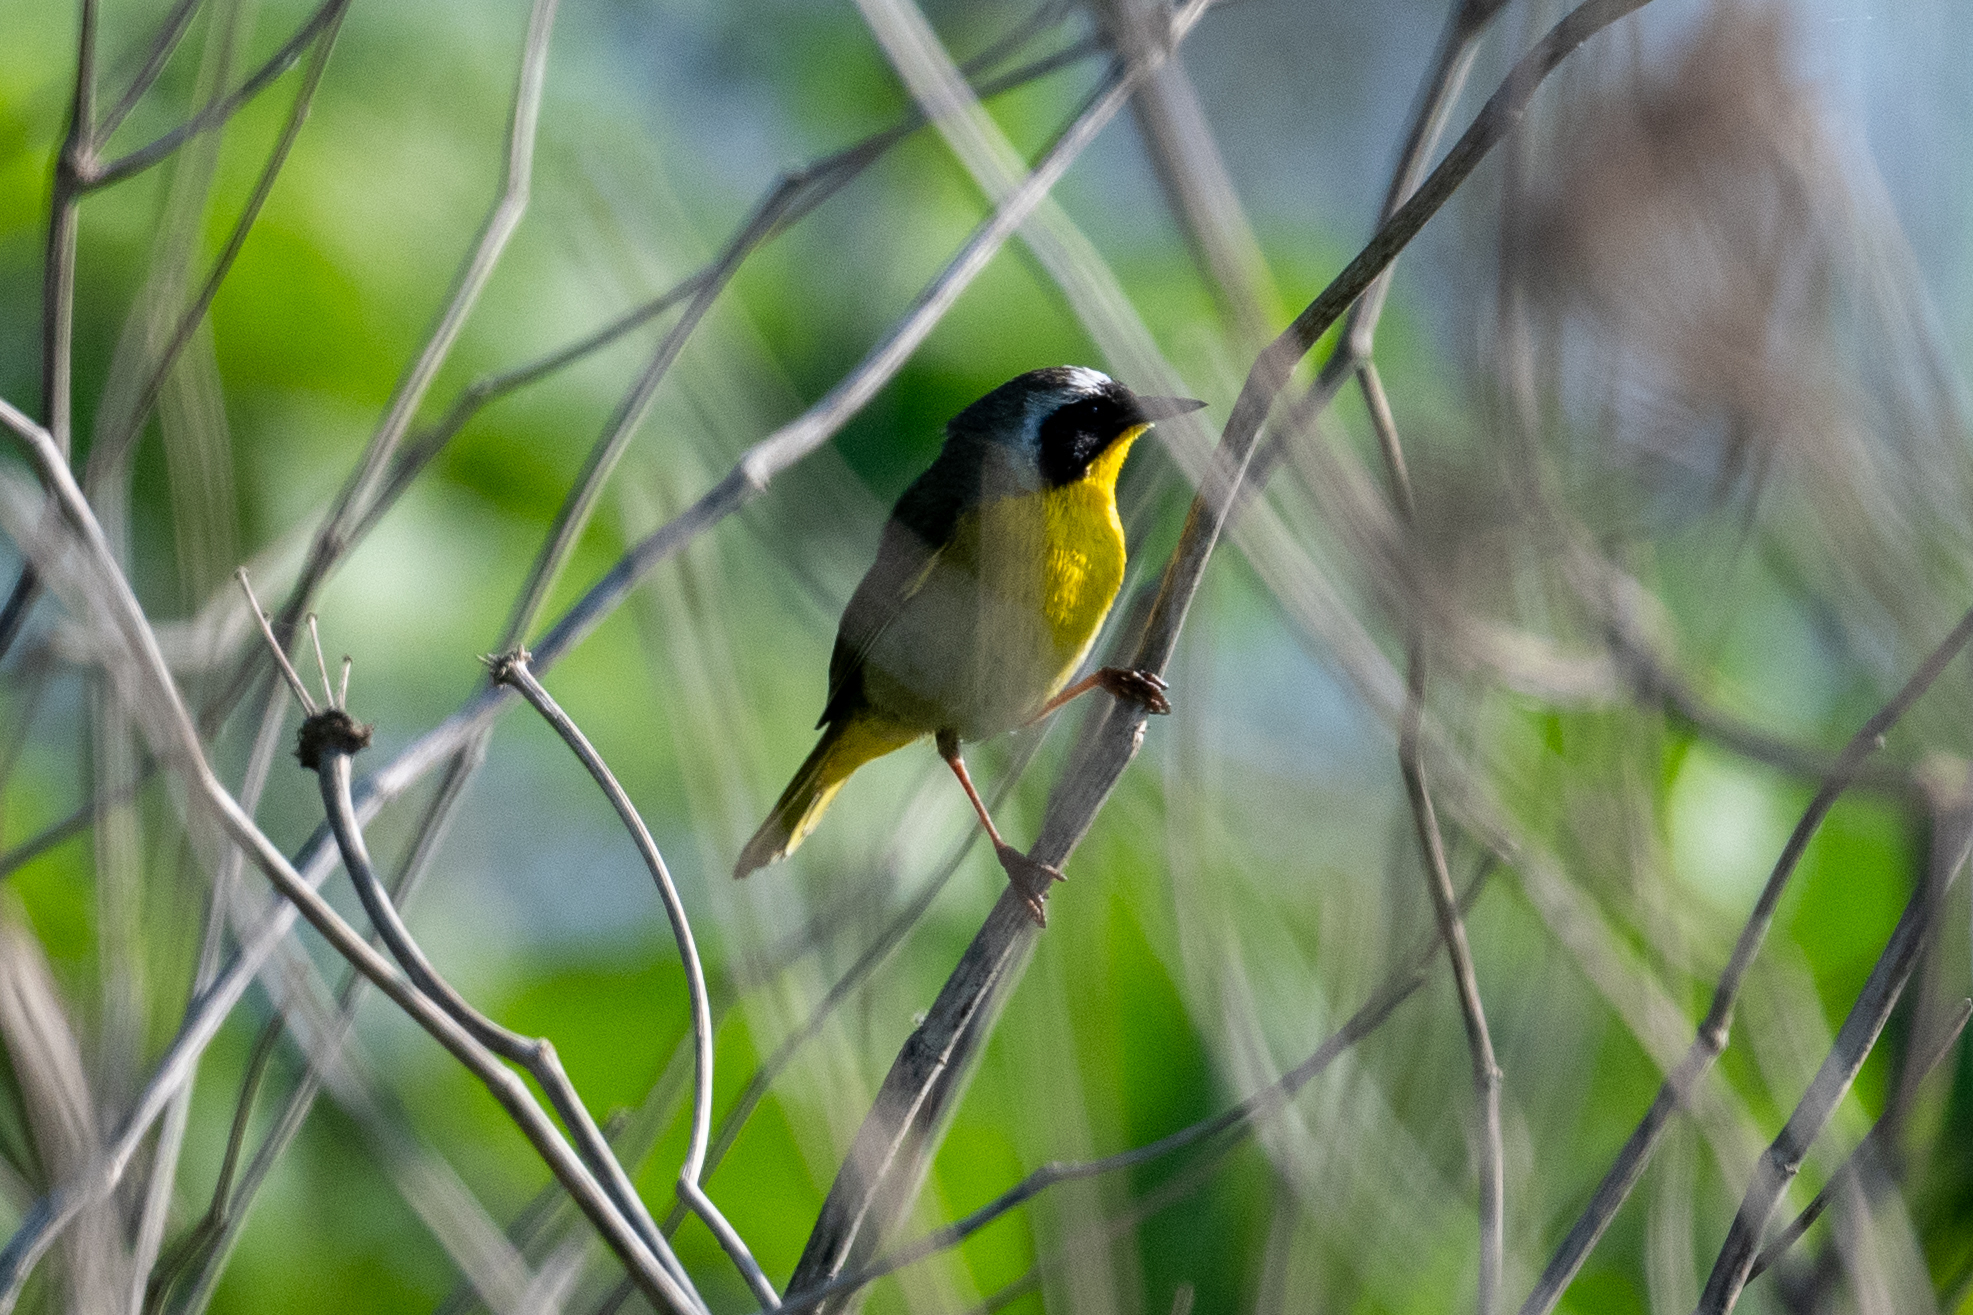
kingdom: Animalia
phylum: Chordata
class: Aves
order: Passeriformes
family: Parulidae
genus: Geothlypis
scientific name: Geothlypis trichas
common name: Common yellowthroat
